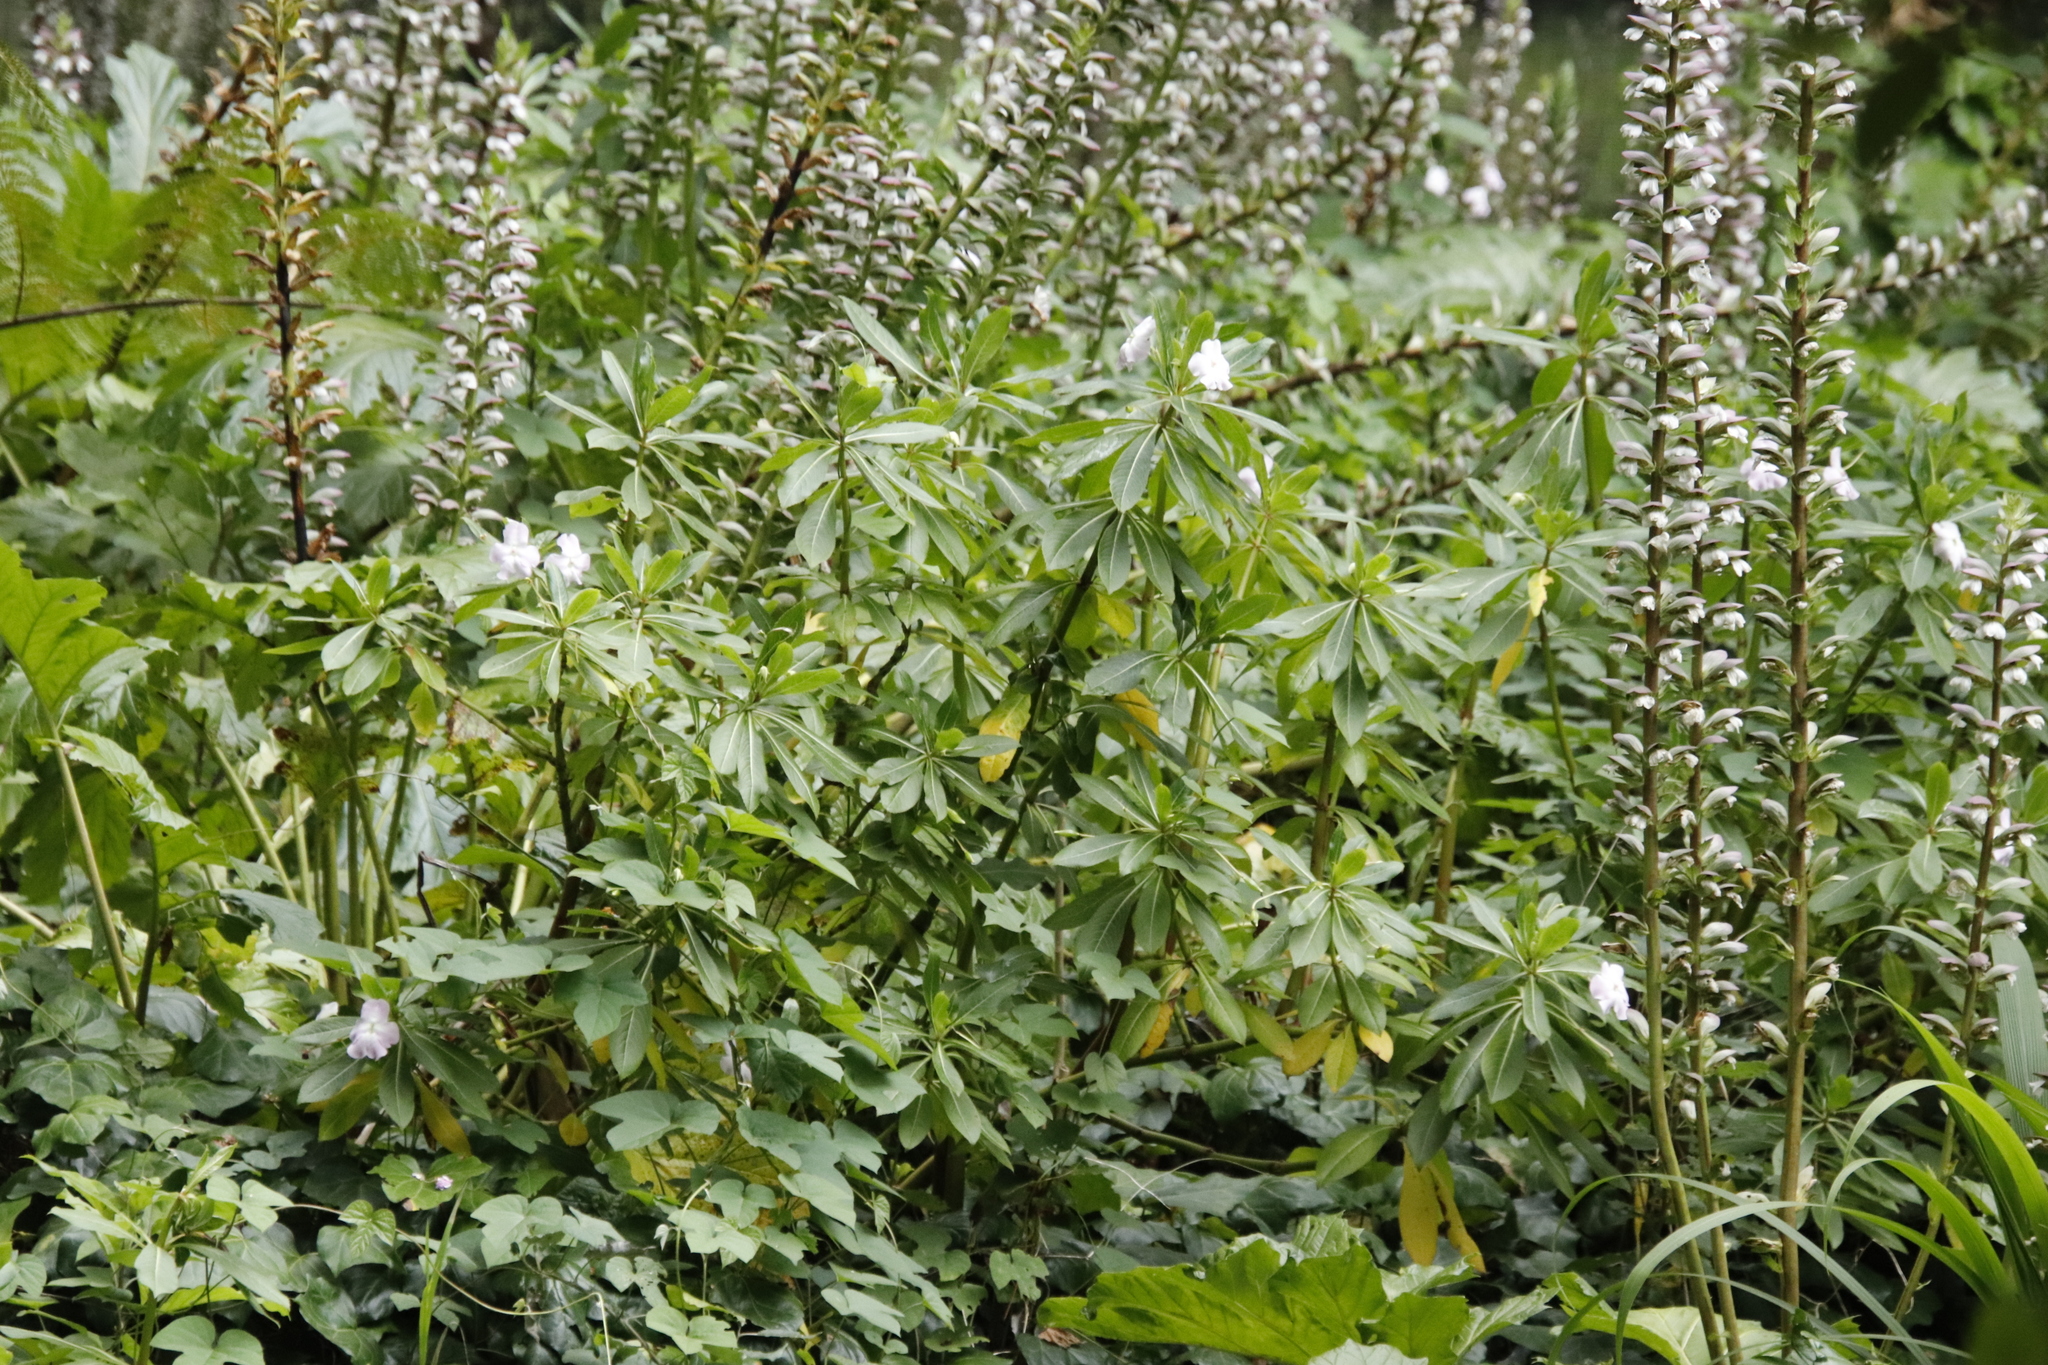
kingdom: Plantae
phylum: Tracheophyta
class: Magnoliopsida
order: Ericales
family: Balsaminaceae
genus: Impatiens
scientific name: Impatiens sodenii
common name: Oliver's touch-me-not
